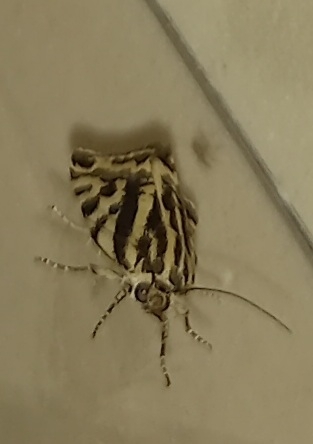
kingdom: Animalia
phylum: Arthropoda
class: Insecta
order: Lepidoptera
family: Noctuidae
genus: Acontia
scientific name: Acontia trabealis
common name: Spotted sulphur
